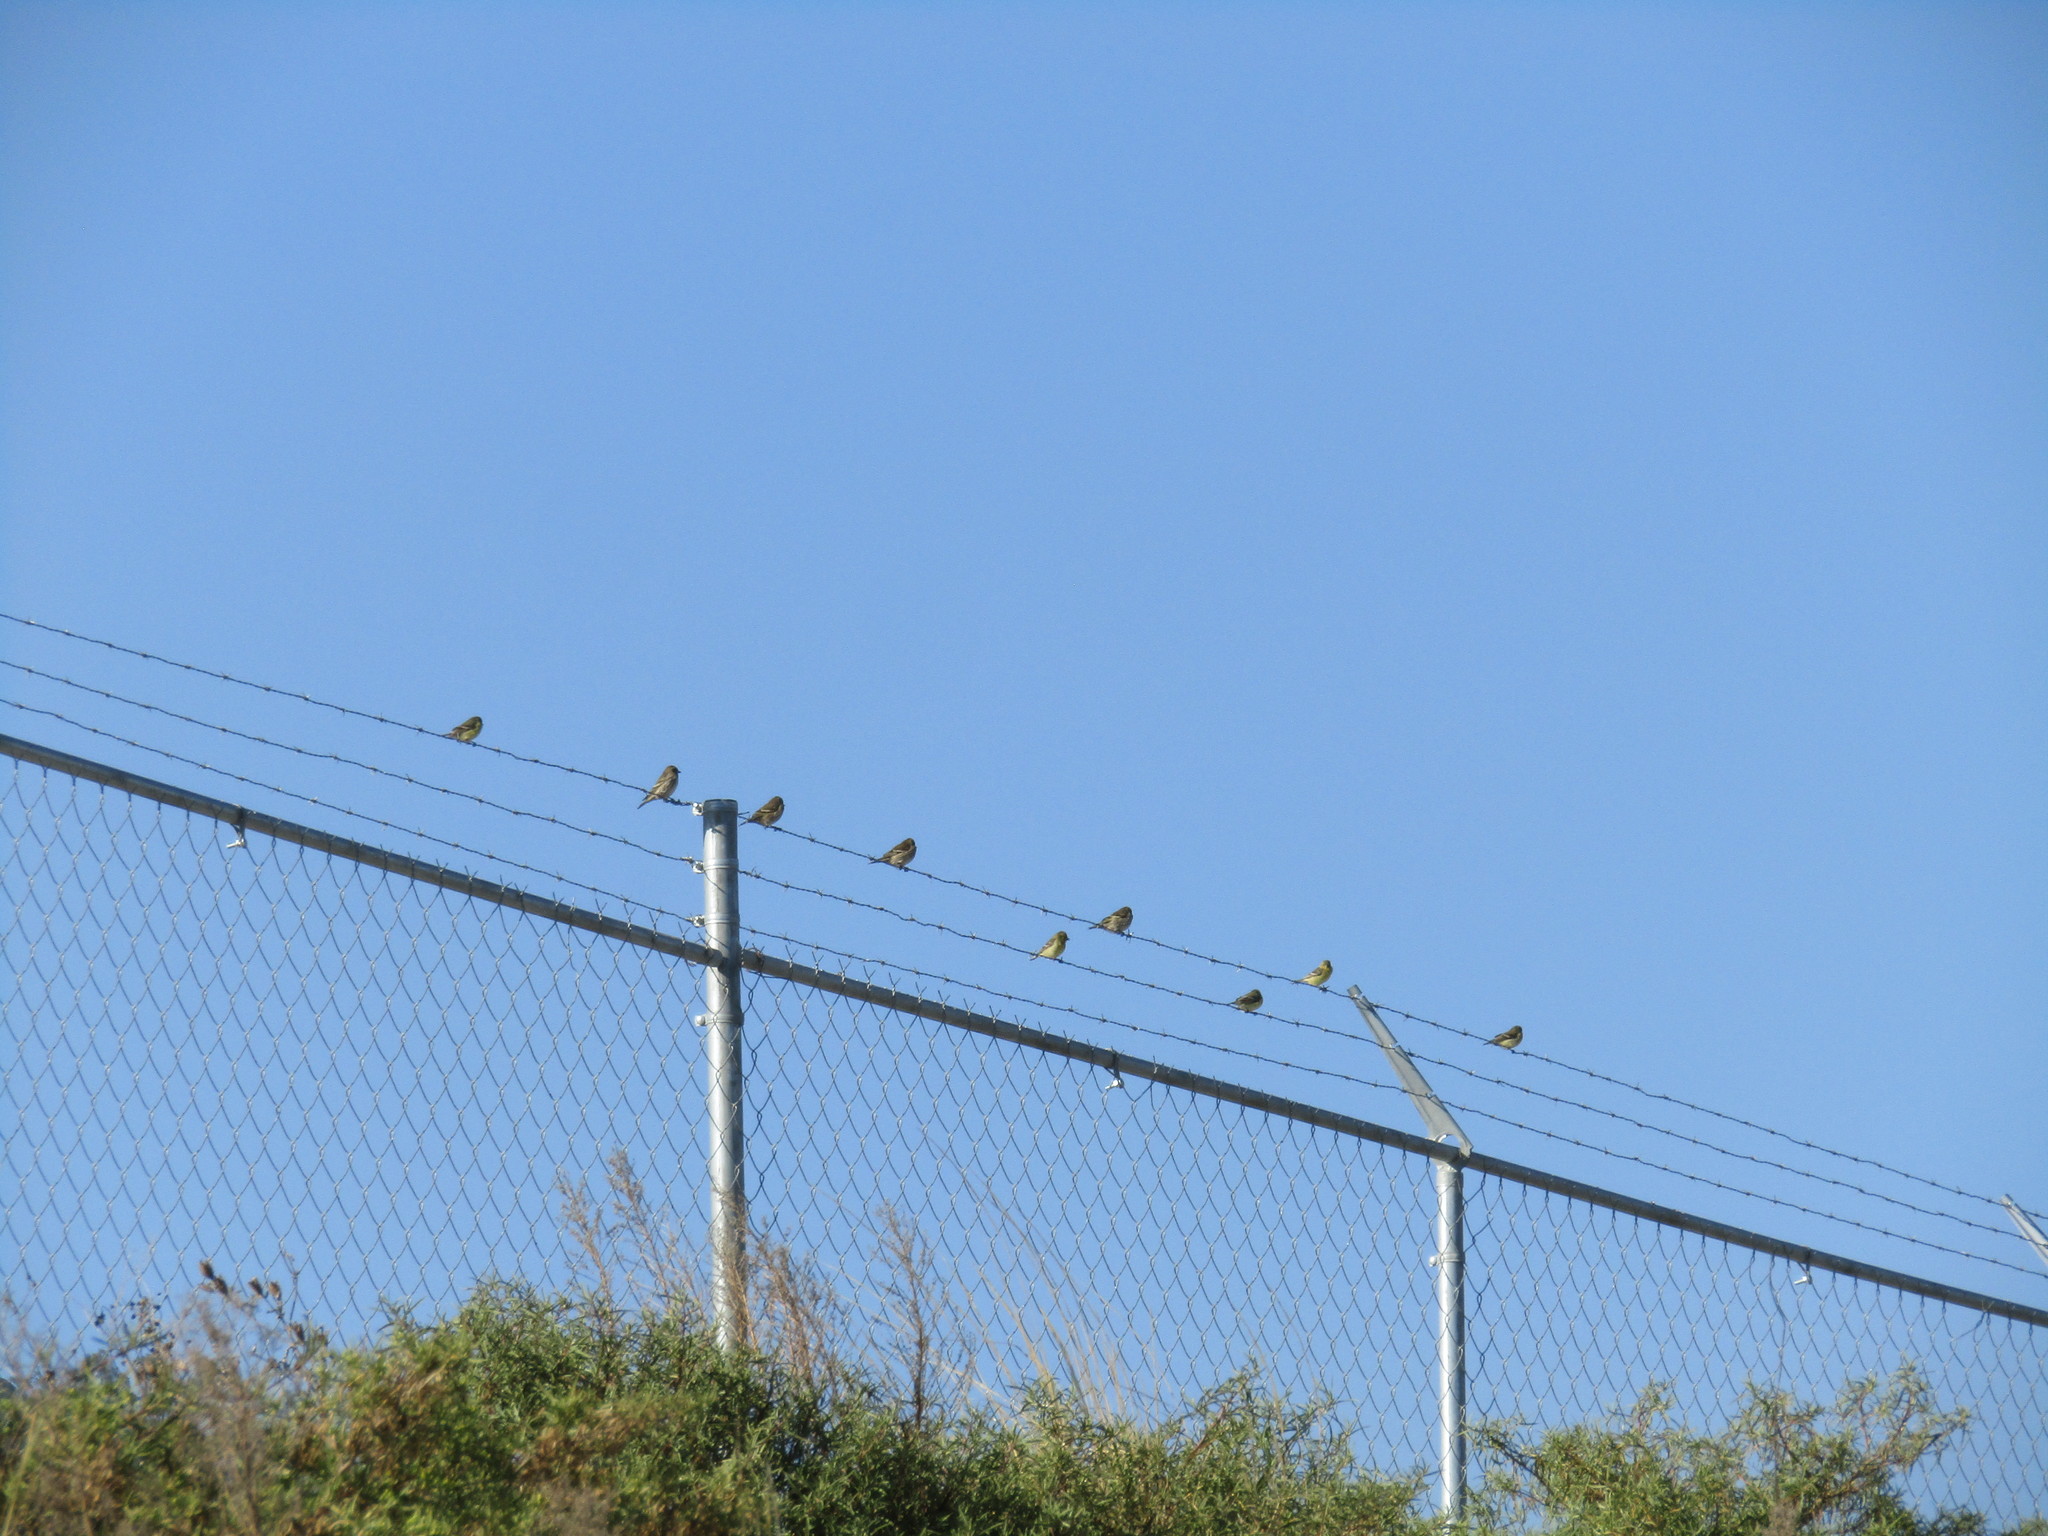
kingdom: Animalia
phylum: Chordata
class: Aves
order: Passeriformes
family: Fringillidae
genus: Spinus
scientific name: Spinus psaltria
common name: Lesser goldfinch
